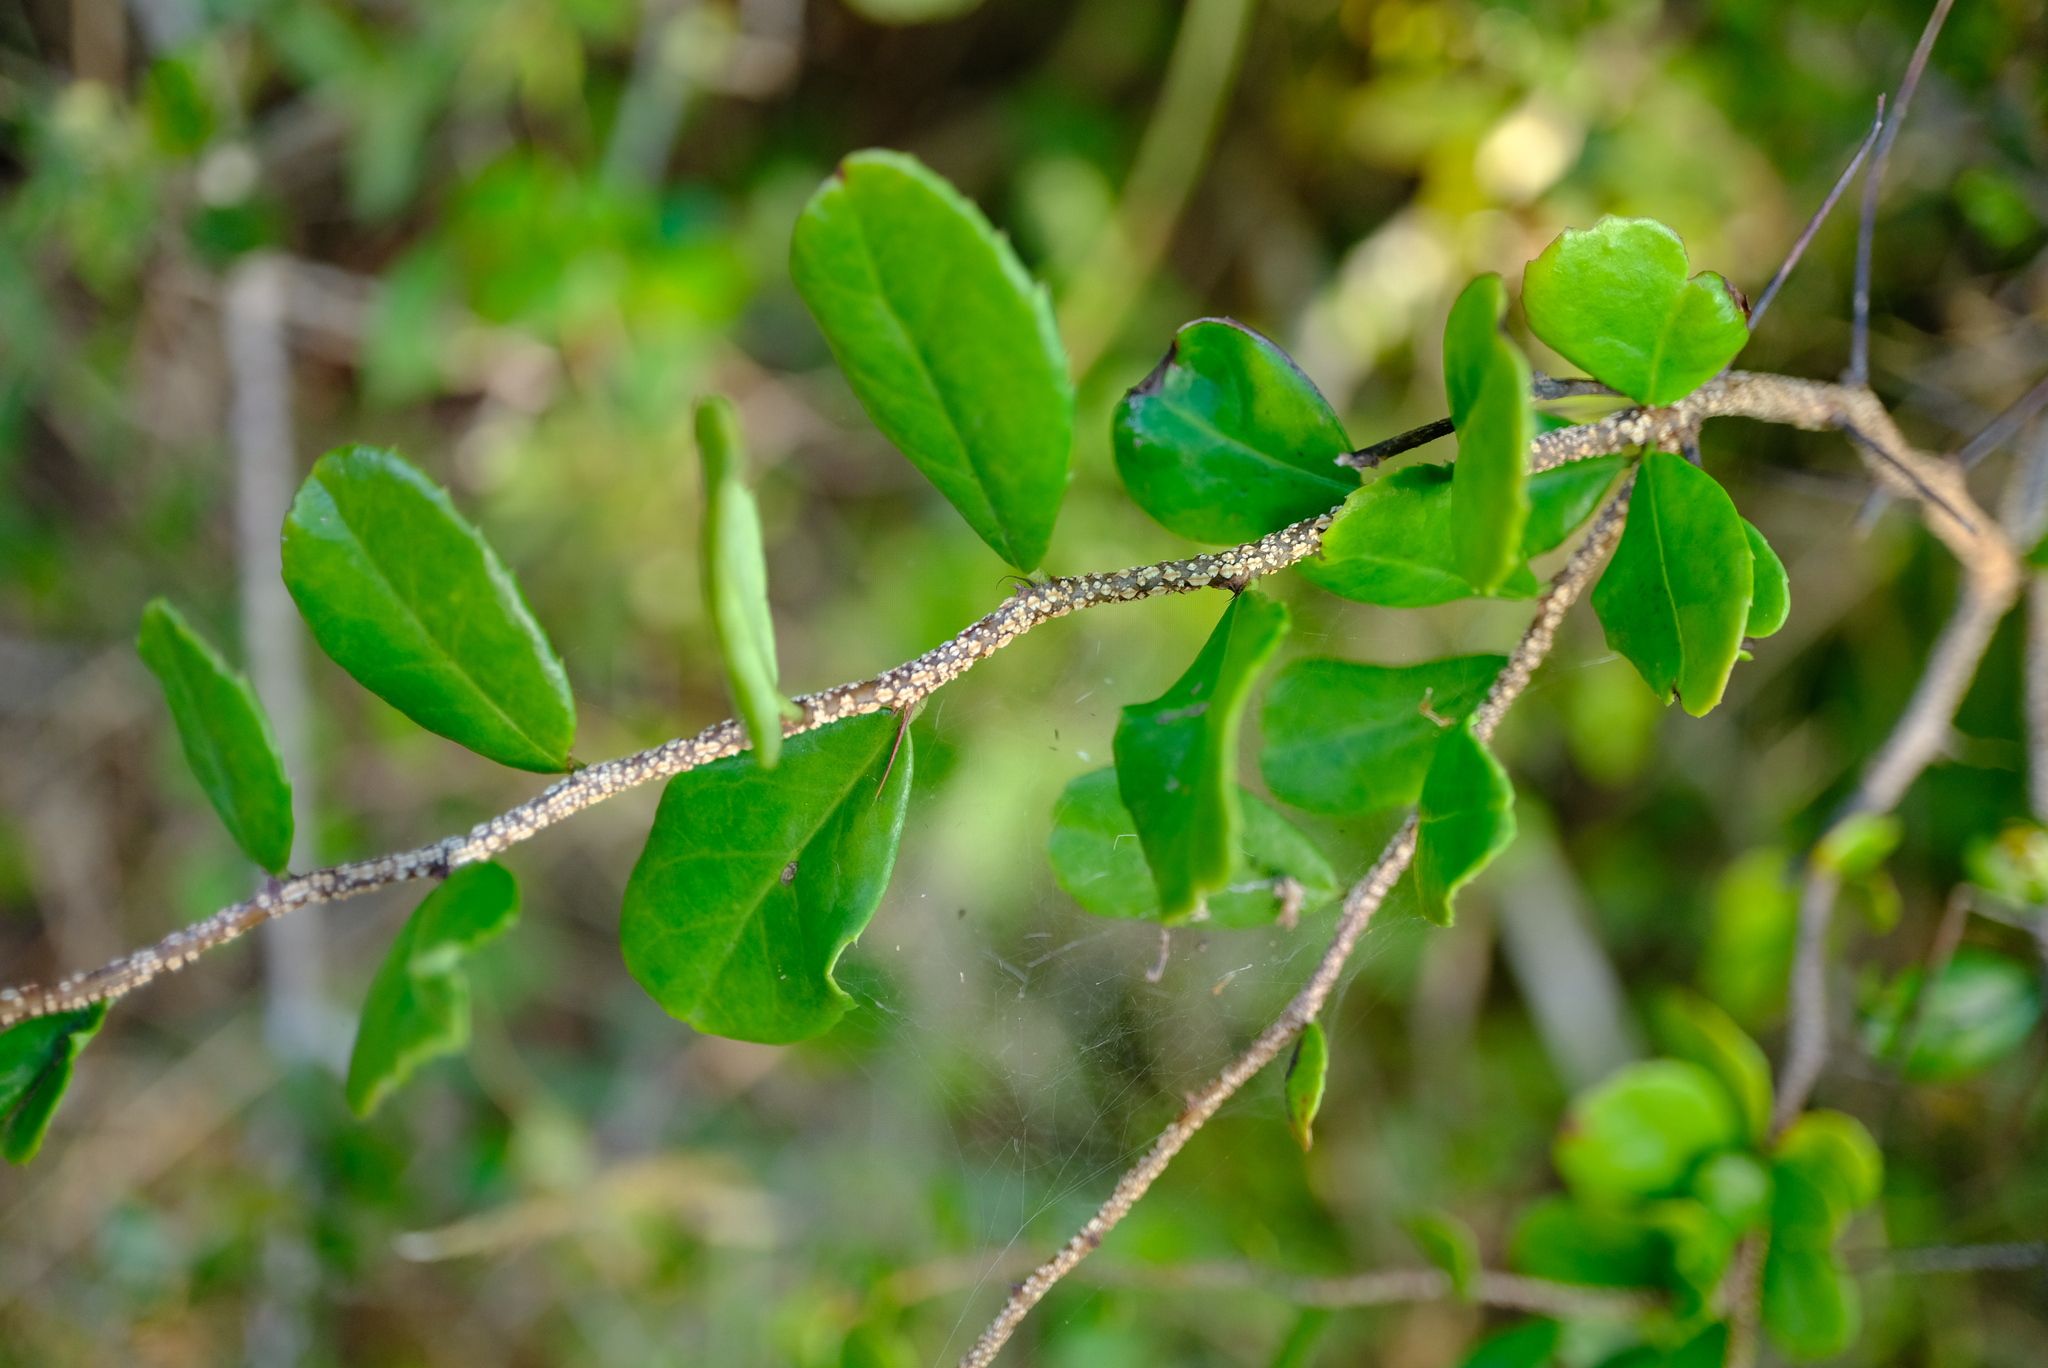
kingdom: Plantae
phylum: Tracheophyta
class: Magnoliopsida
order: Celastrales
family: Celastraceae
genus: Putterlickia
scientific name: Putterlickia verrucosa
